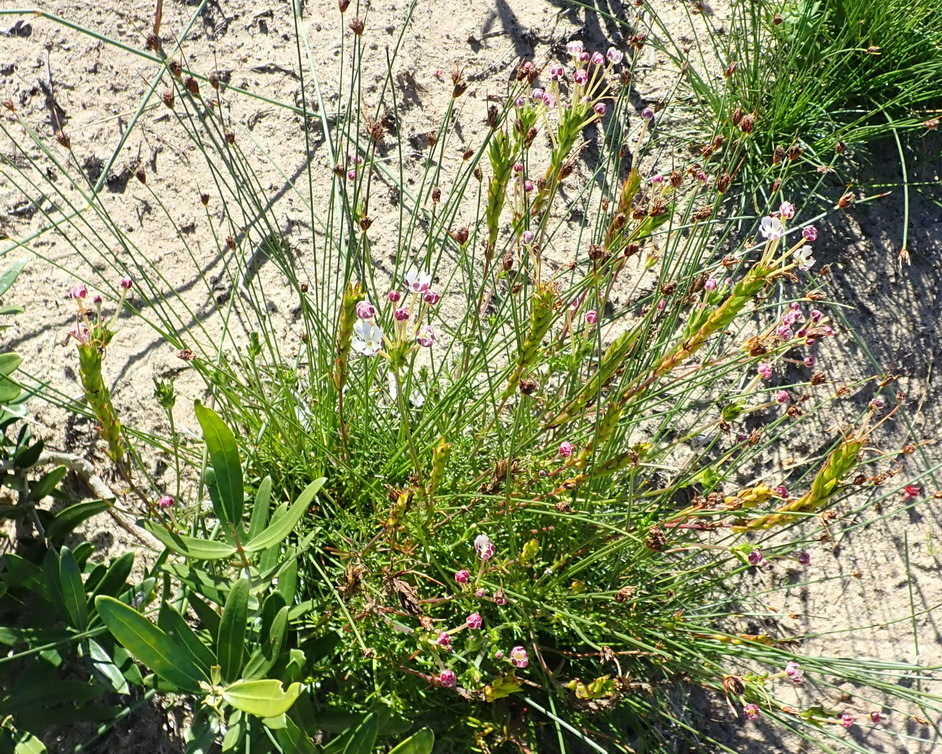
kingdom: Plantae
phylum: Tracheophyta
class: Magnoliopsida
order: Lamiales
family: Scrophulariaceae
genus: Zaluzianskya
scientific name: Zaluzianskya capensis
